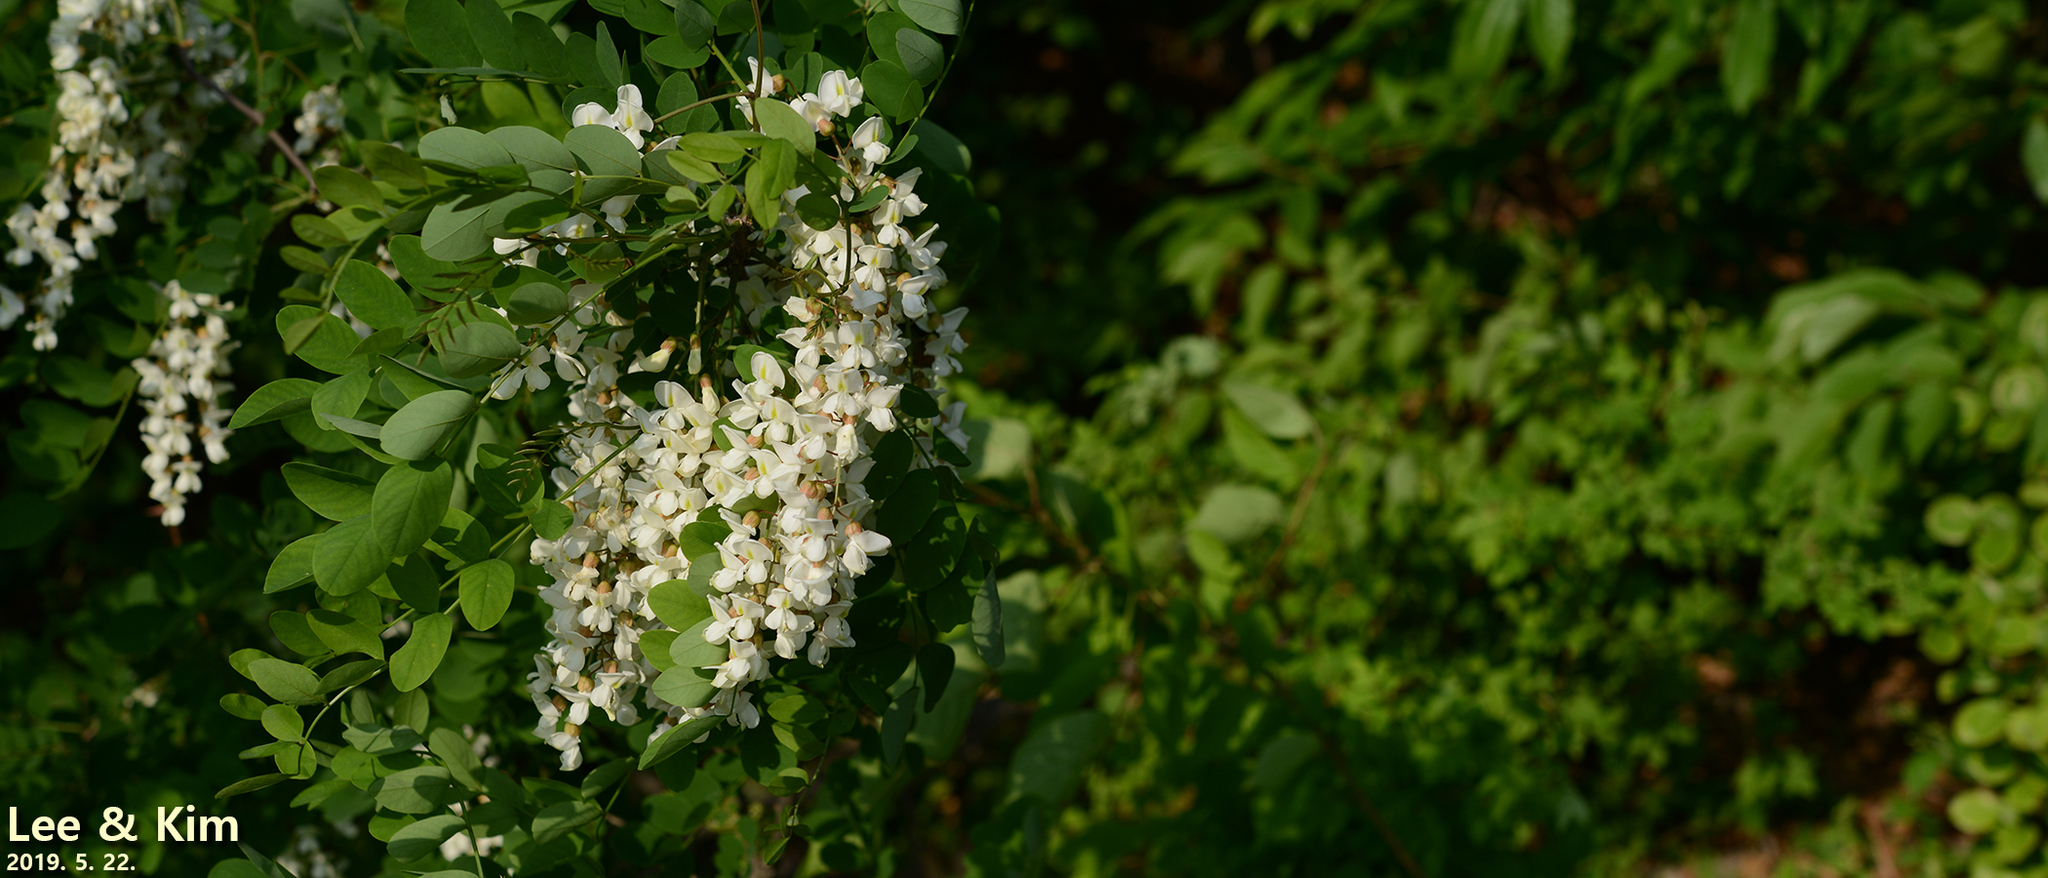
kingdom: Plantae
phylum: Tracheophyta
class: Magnoliopsida
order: Fabales
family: Fabaceae
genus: Robinia
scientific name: Robinia pseudoacacia
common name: Black locust
